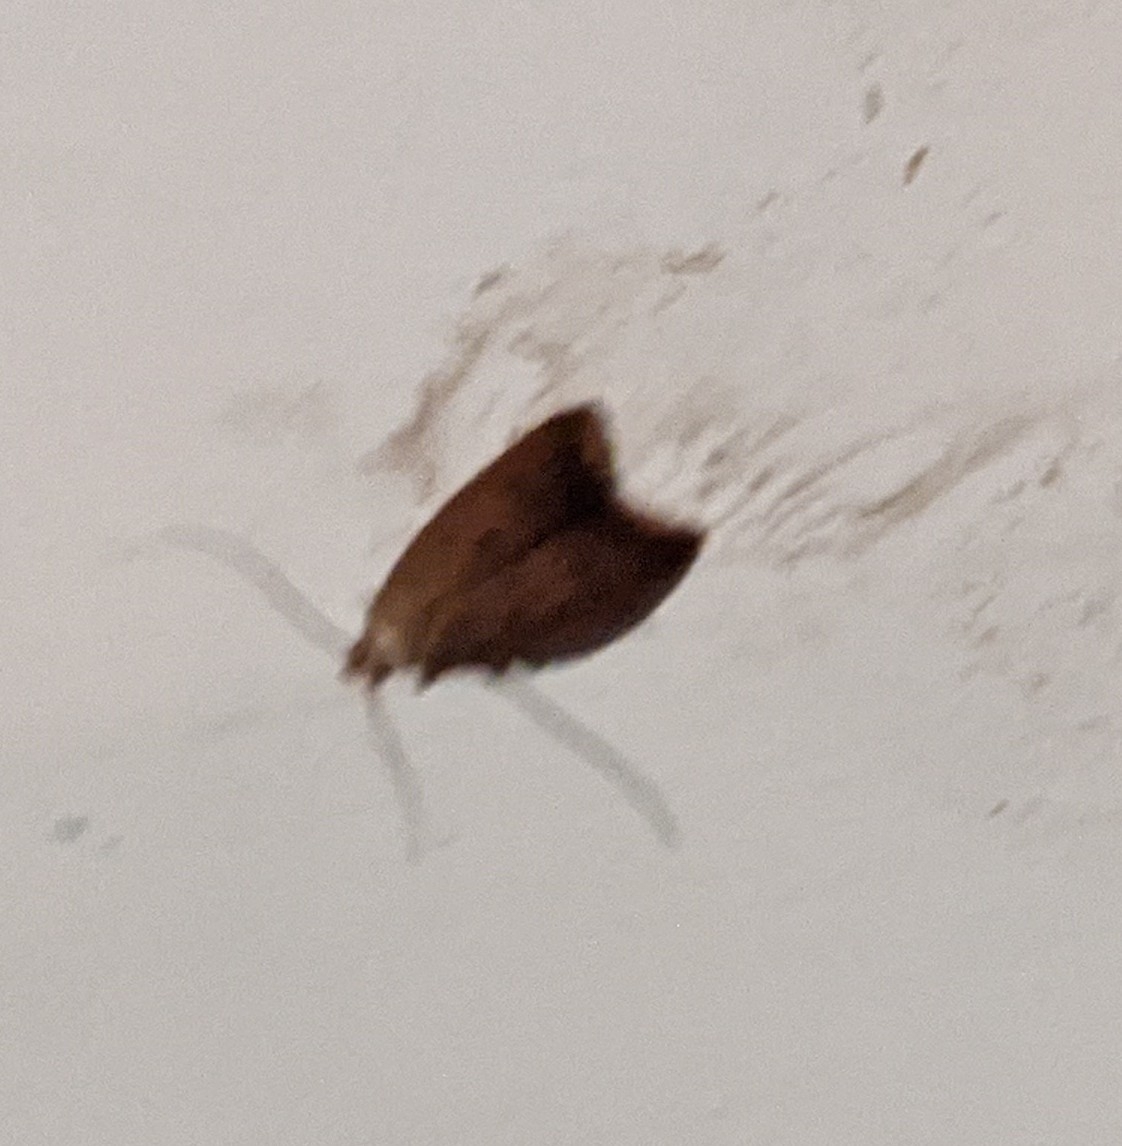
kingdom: Animalia
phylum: Arthropoda
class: Insecta
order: Lepidoptera
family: Oecophoridae
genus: Tachystola
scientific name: Tachystola acroxantha
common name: Ruddy streak
